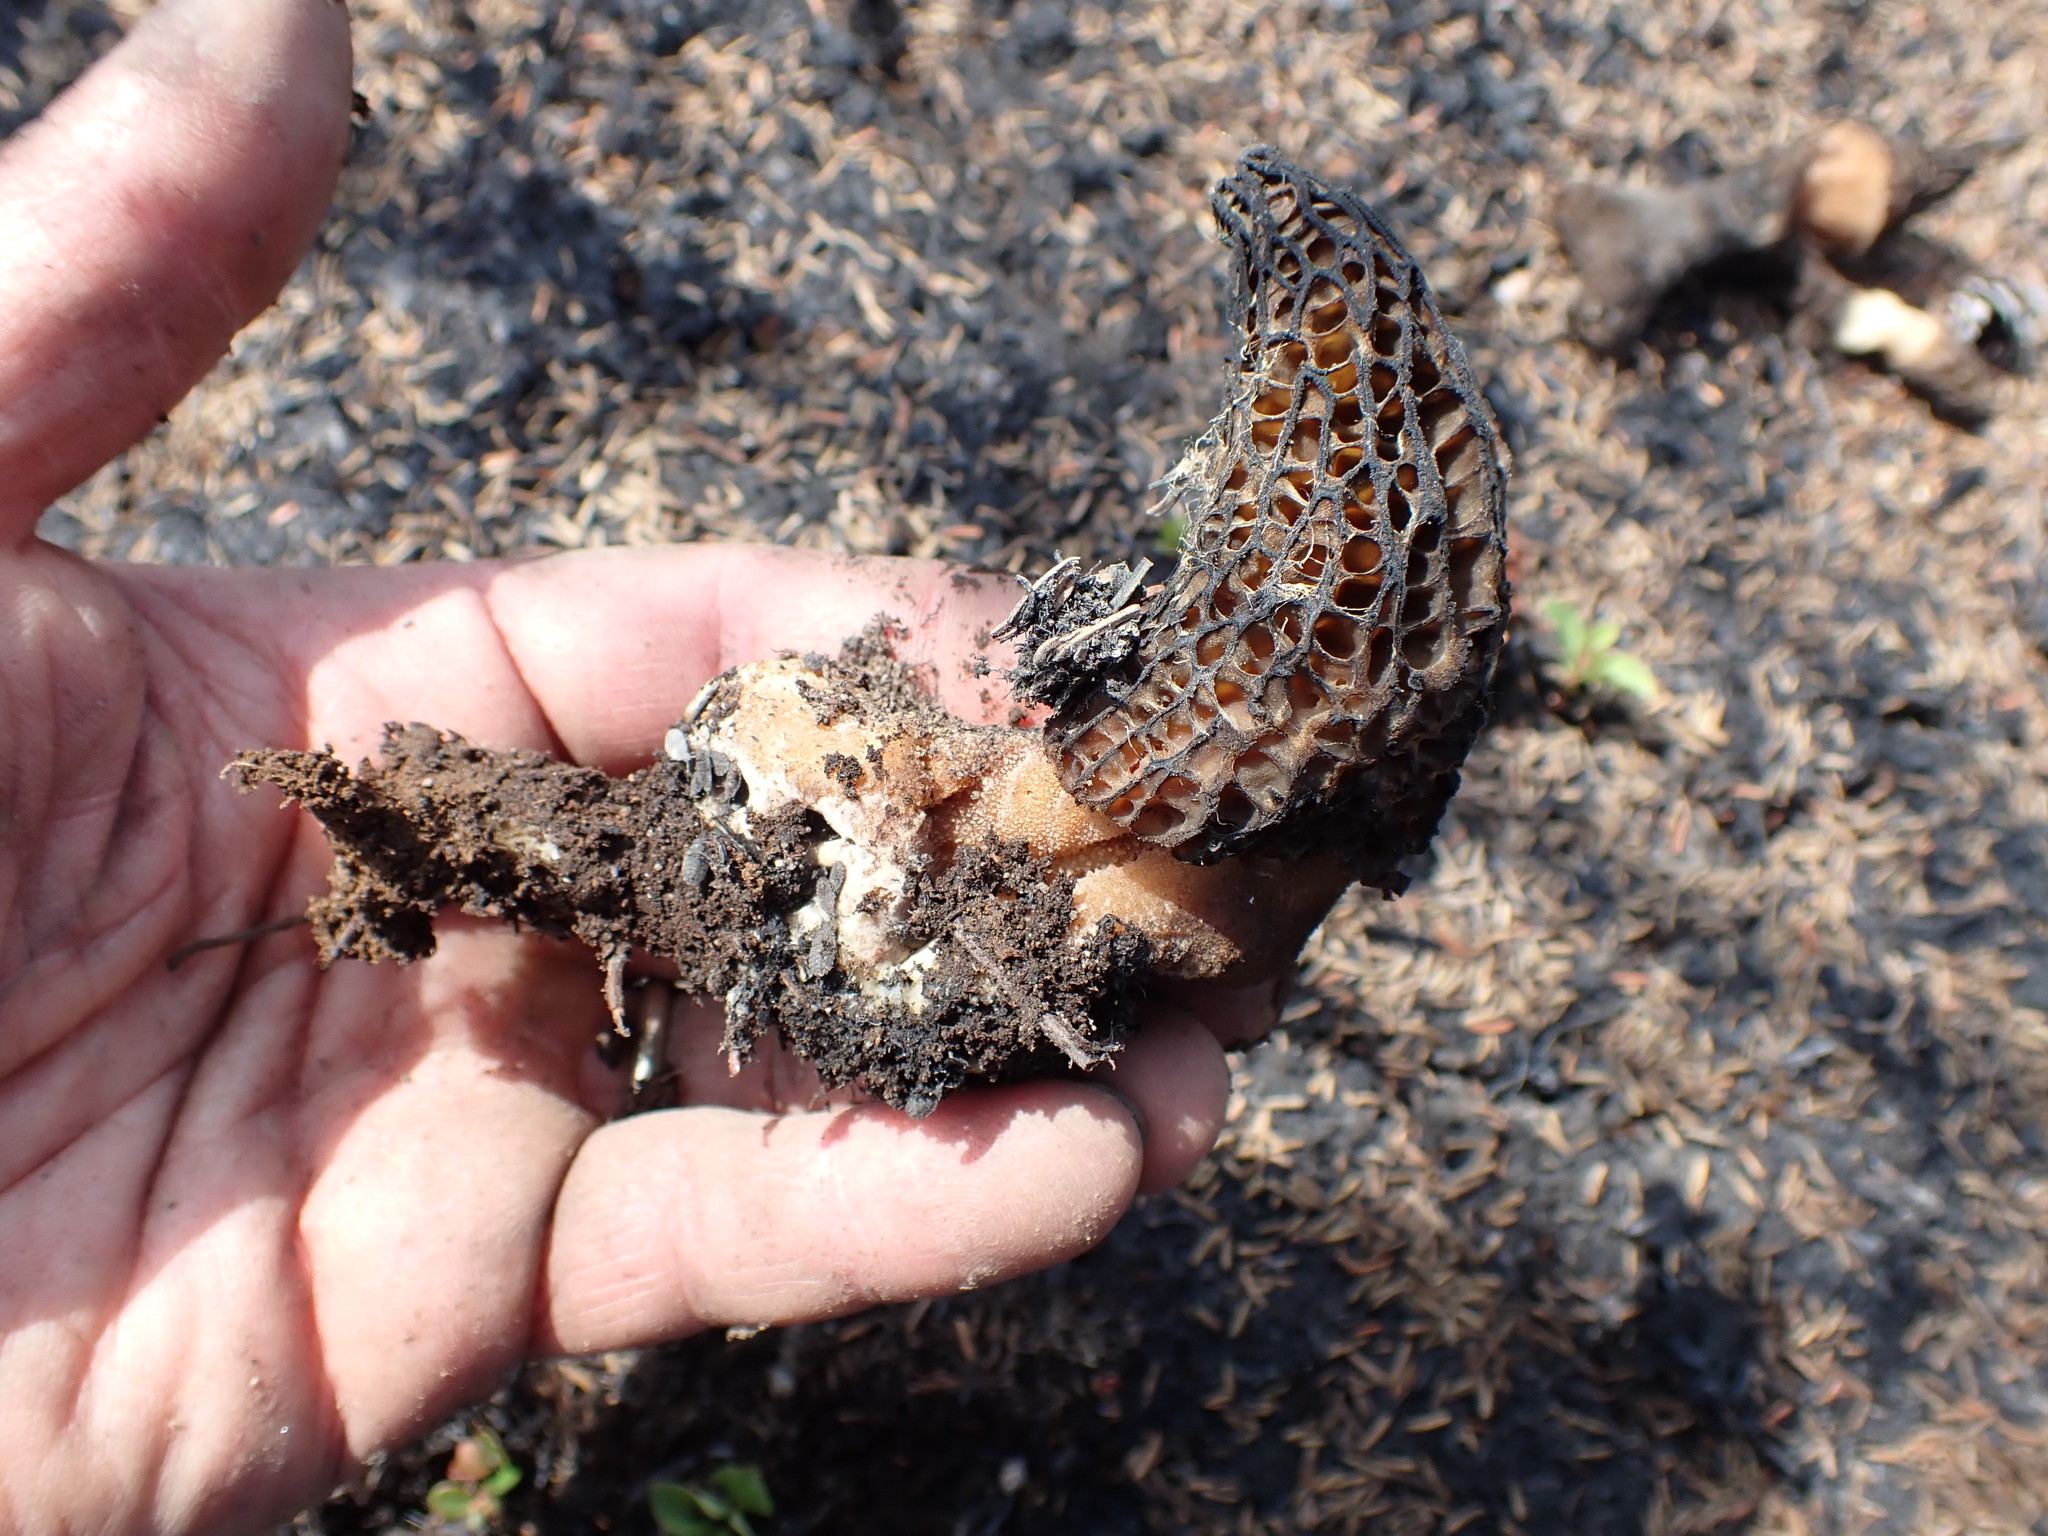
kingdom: Fungi
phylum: Ascomycota
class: Pezizomycetes
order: Pezizales
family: Morchellaceae
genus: Morchella
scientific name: Morchella exuberans
